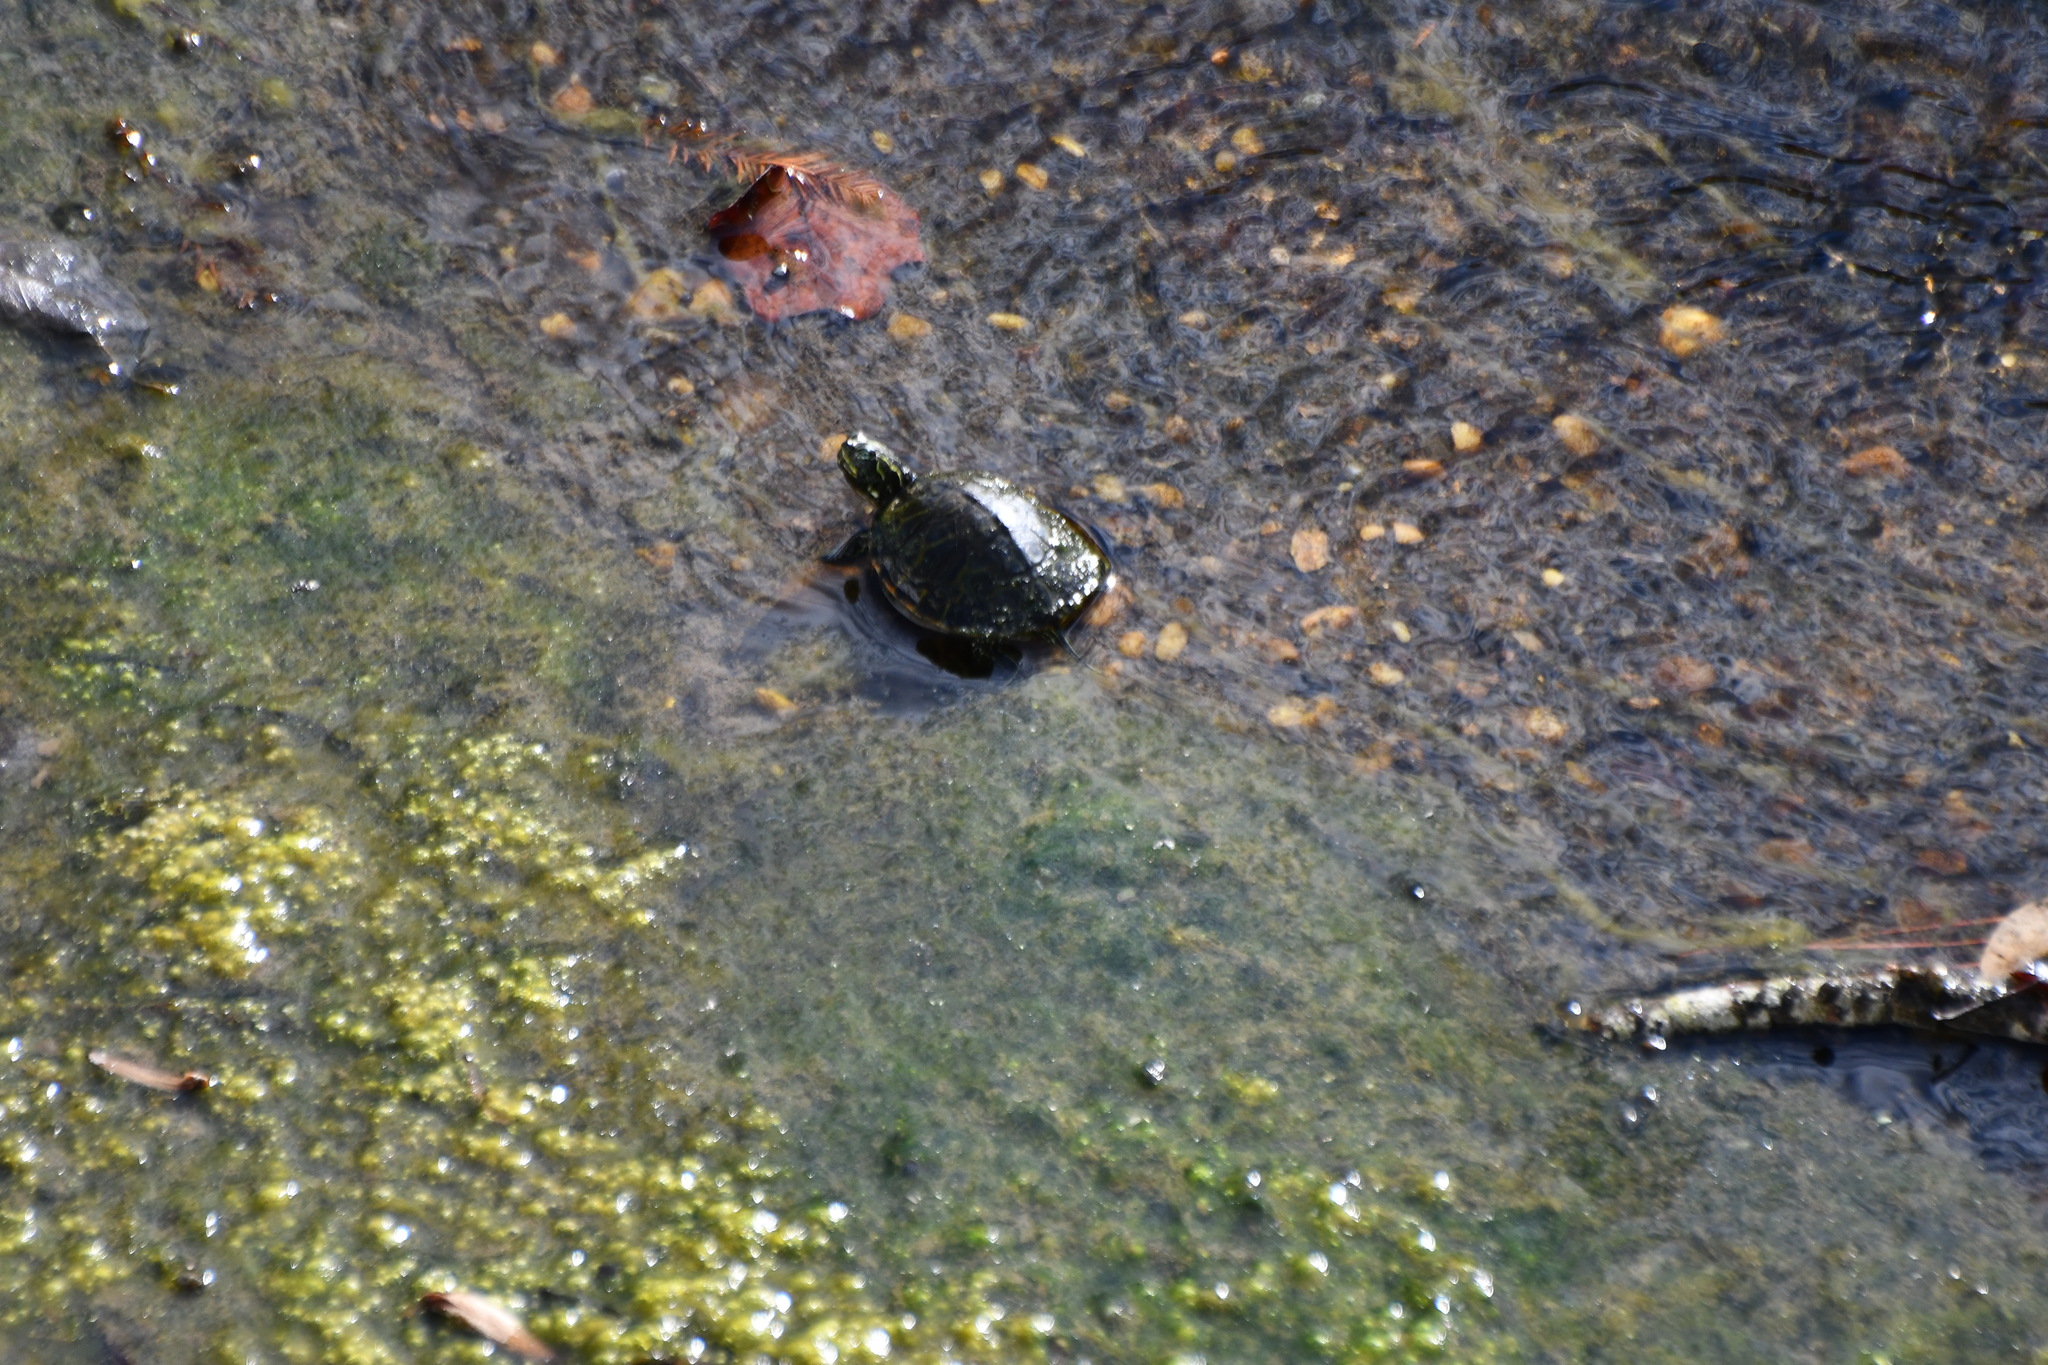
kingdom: Animalia
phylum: Chordata
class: Testudines
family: Emydidae
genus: Pseudemys
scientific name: Pseudemys rubriventris
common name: American red-bellied turtle
